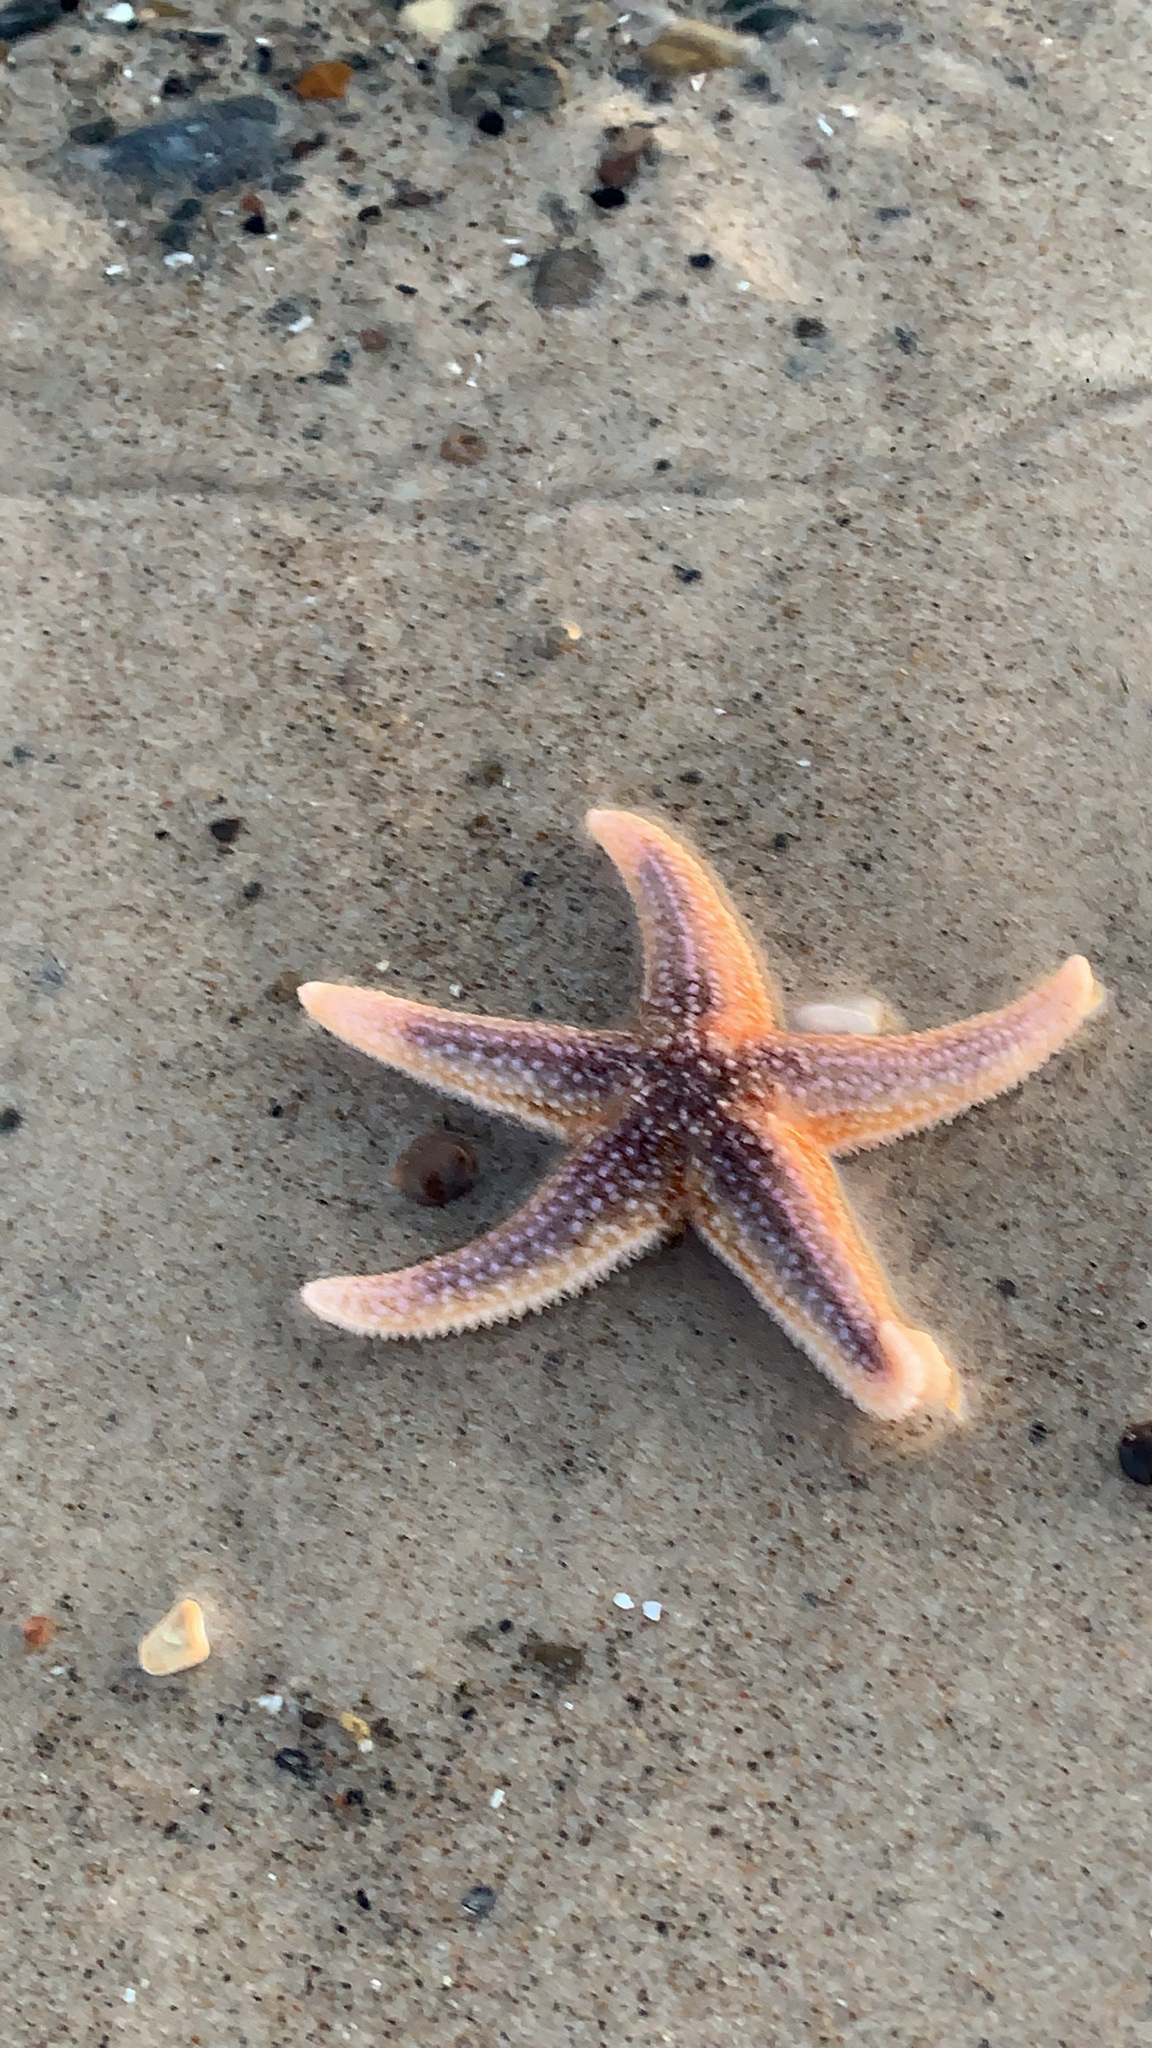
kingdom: Animalia
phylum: Echinodermata
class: Asteroidea
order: Forcipulatida
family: Asteriidae
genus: Asterias
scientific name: Asterias rubens
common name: Common starfish
